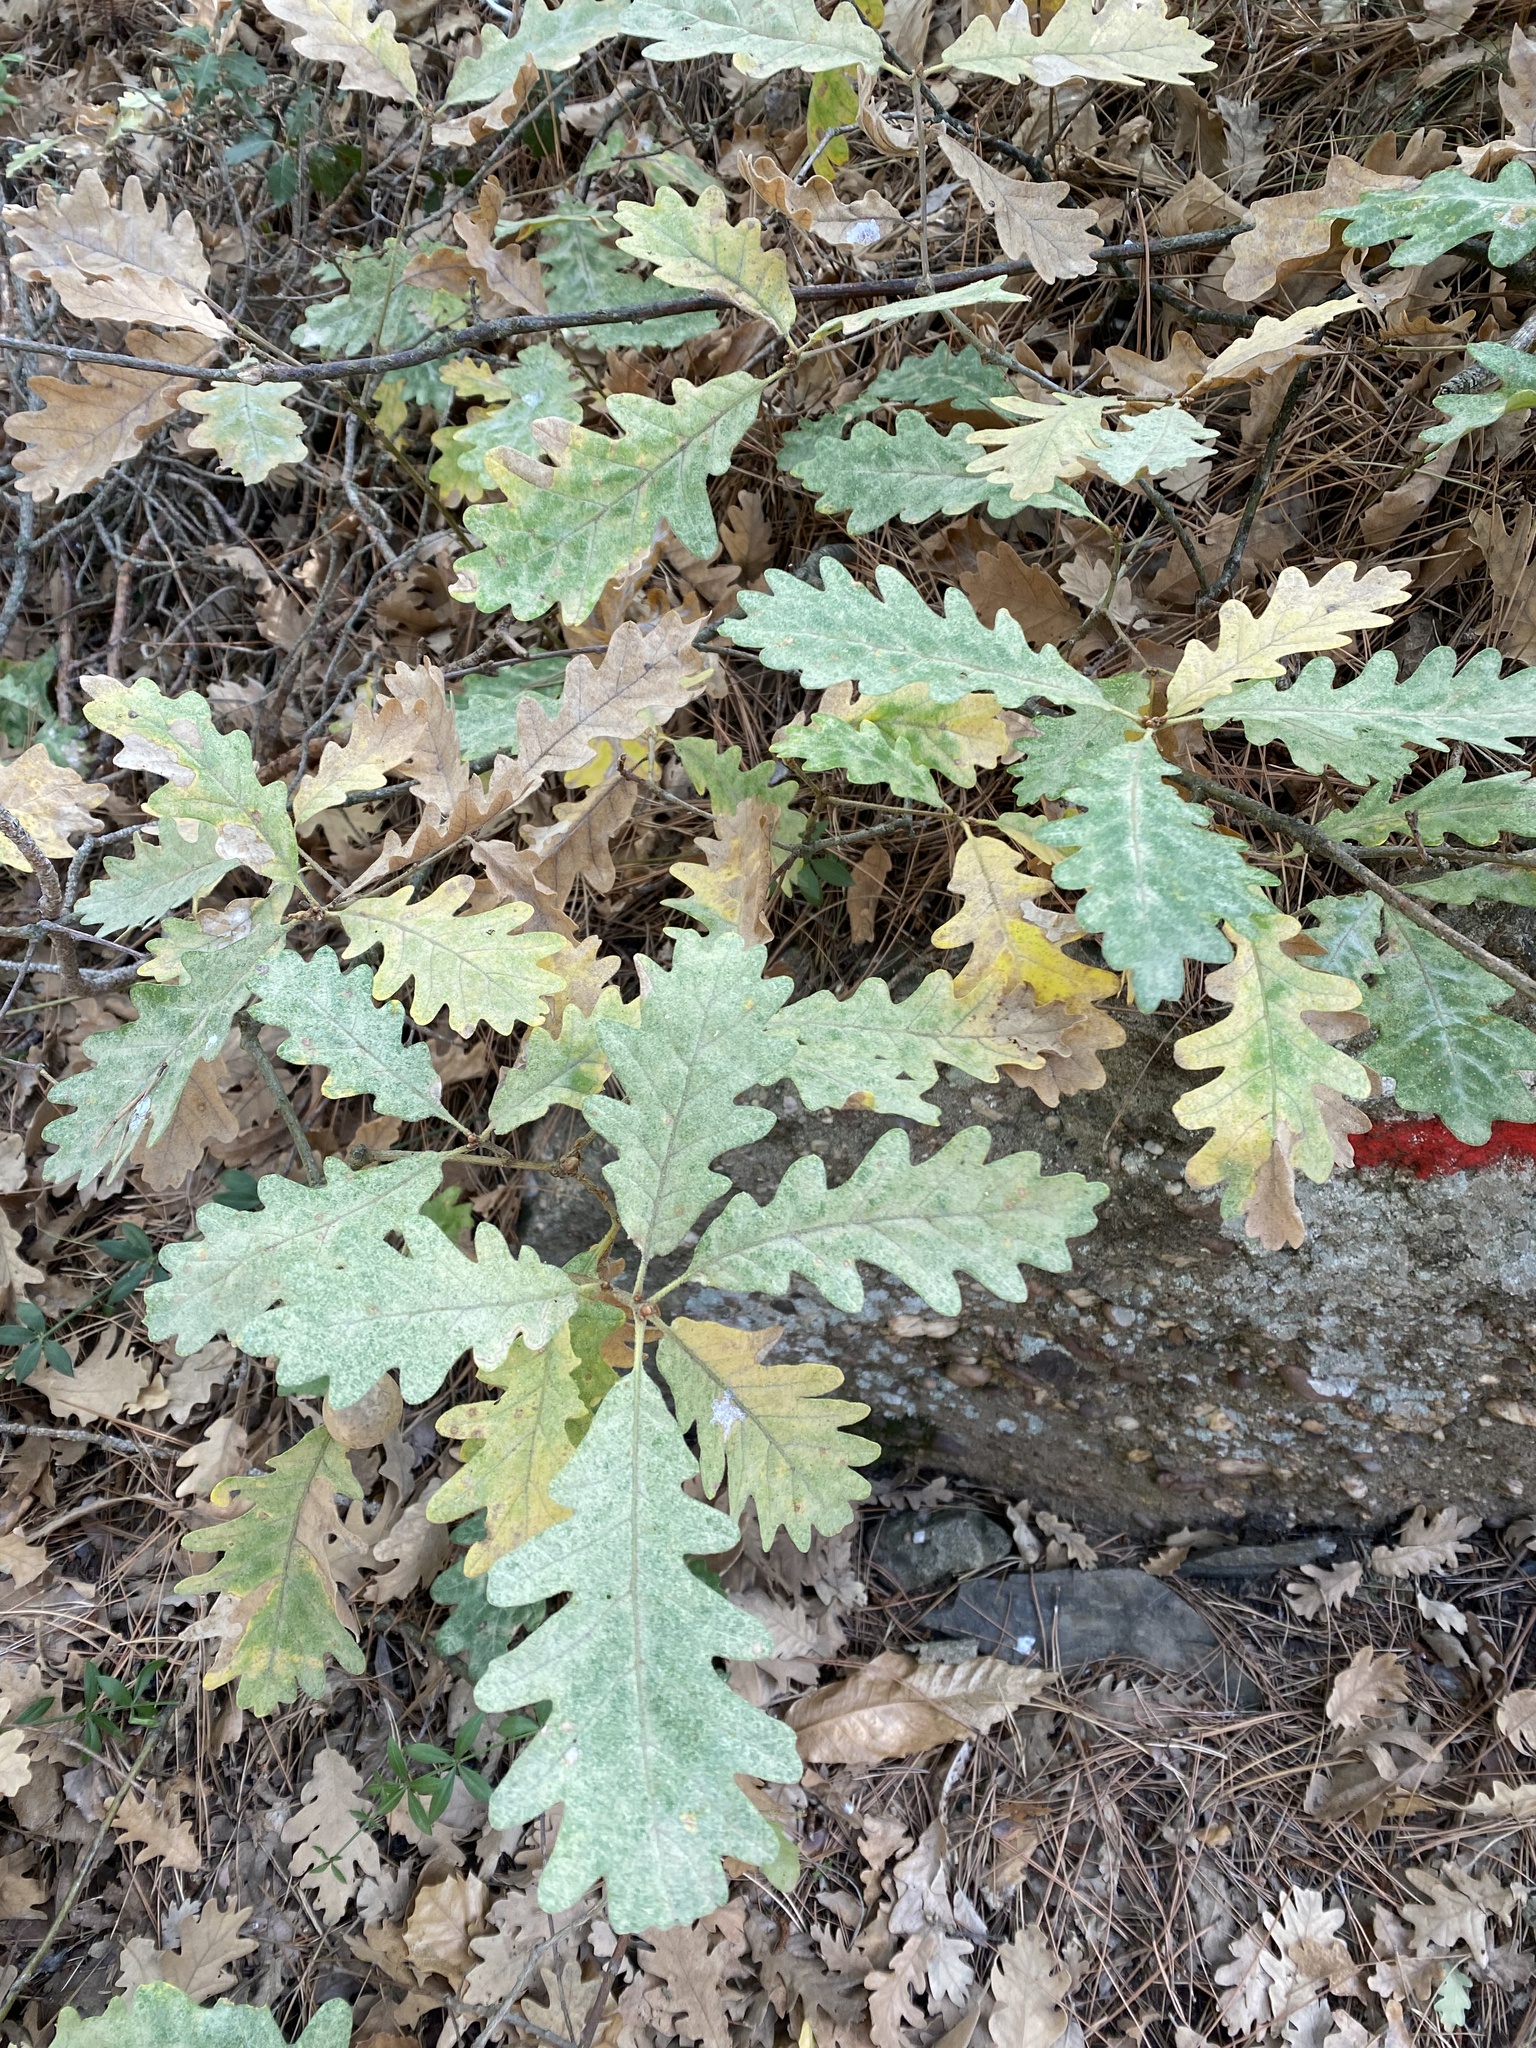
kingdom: Plantae
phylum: Tracheophyta
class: Magnoliopsida
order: Fagales
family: Fagaceae
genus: Quercus
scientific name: Quercus pyrenaica
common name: Pyrenean oak
